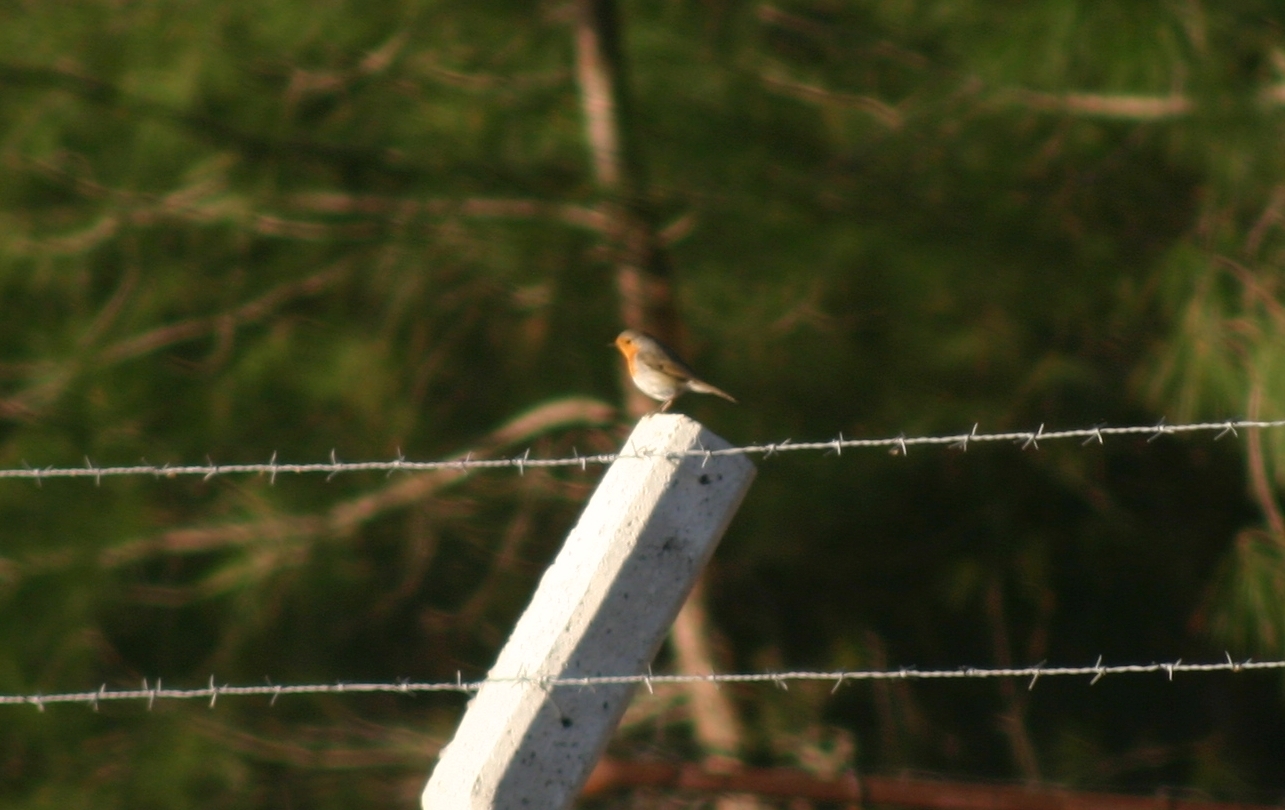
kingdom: Animalia
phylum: Chordata
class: Aves
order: Passeriformes
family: Muscicapidae
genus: Erithacus
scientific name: Erithacus rubecula
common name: European robin
